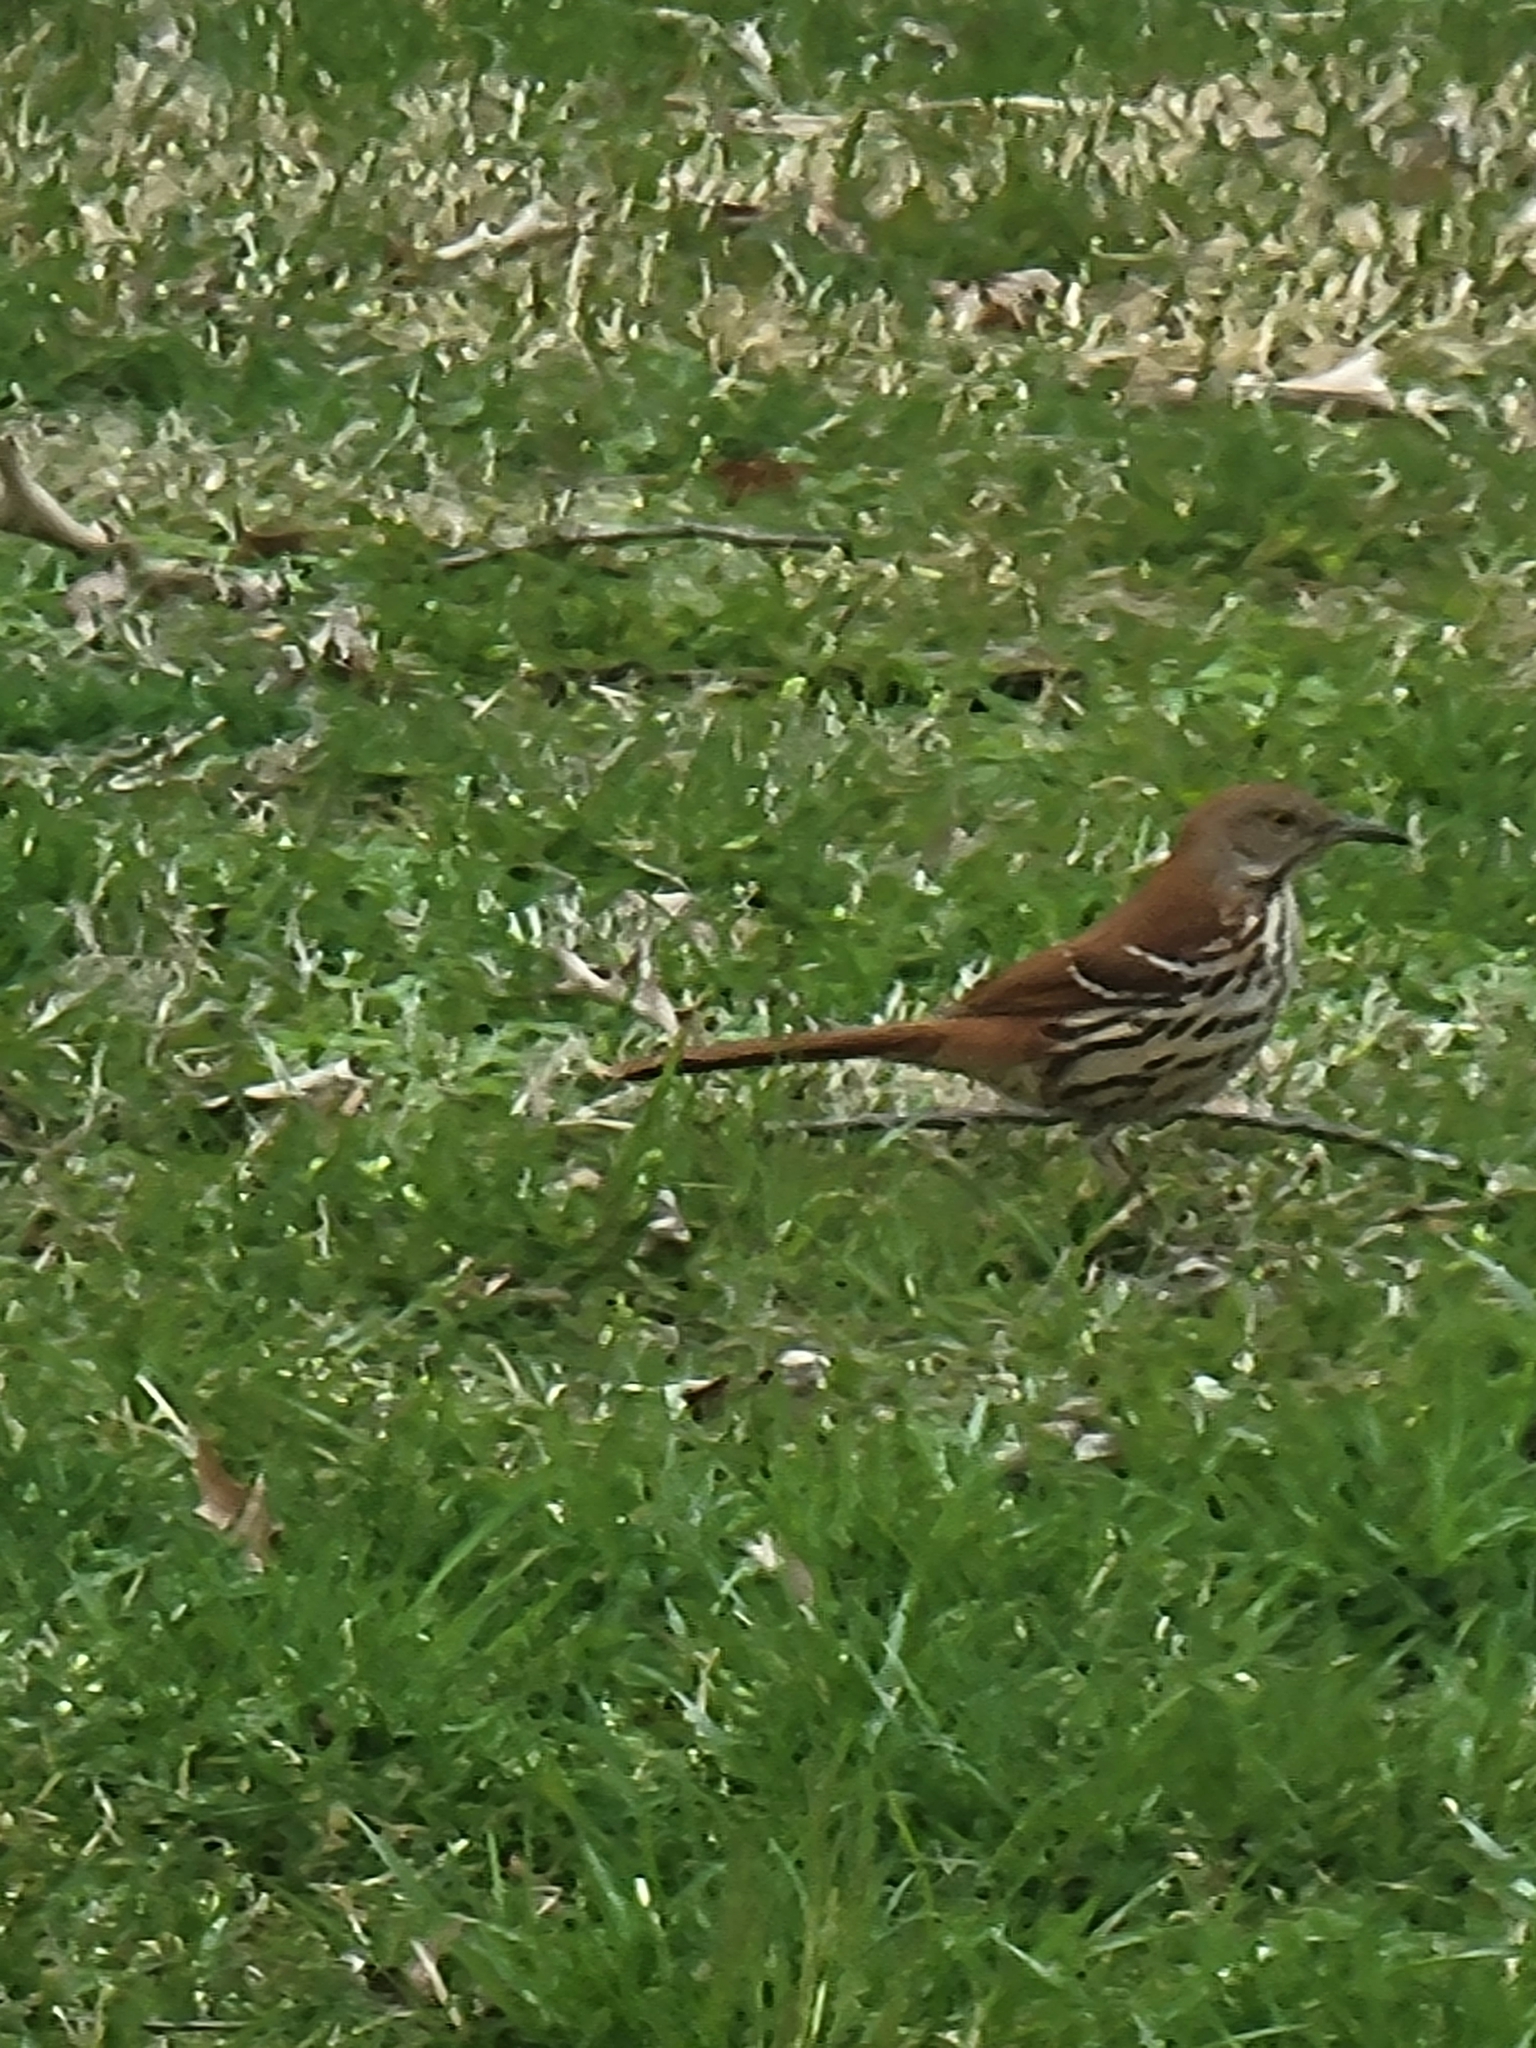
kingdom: Animalia
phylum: Chordata
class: Aves
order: Passeriformes
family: Mimidae
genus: Toxostoma
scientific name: Toxostoma rufum
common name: Brown thrasher
